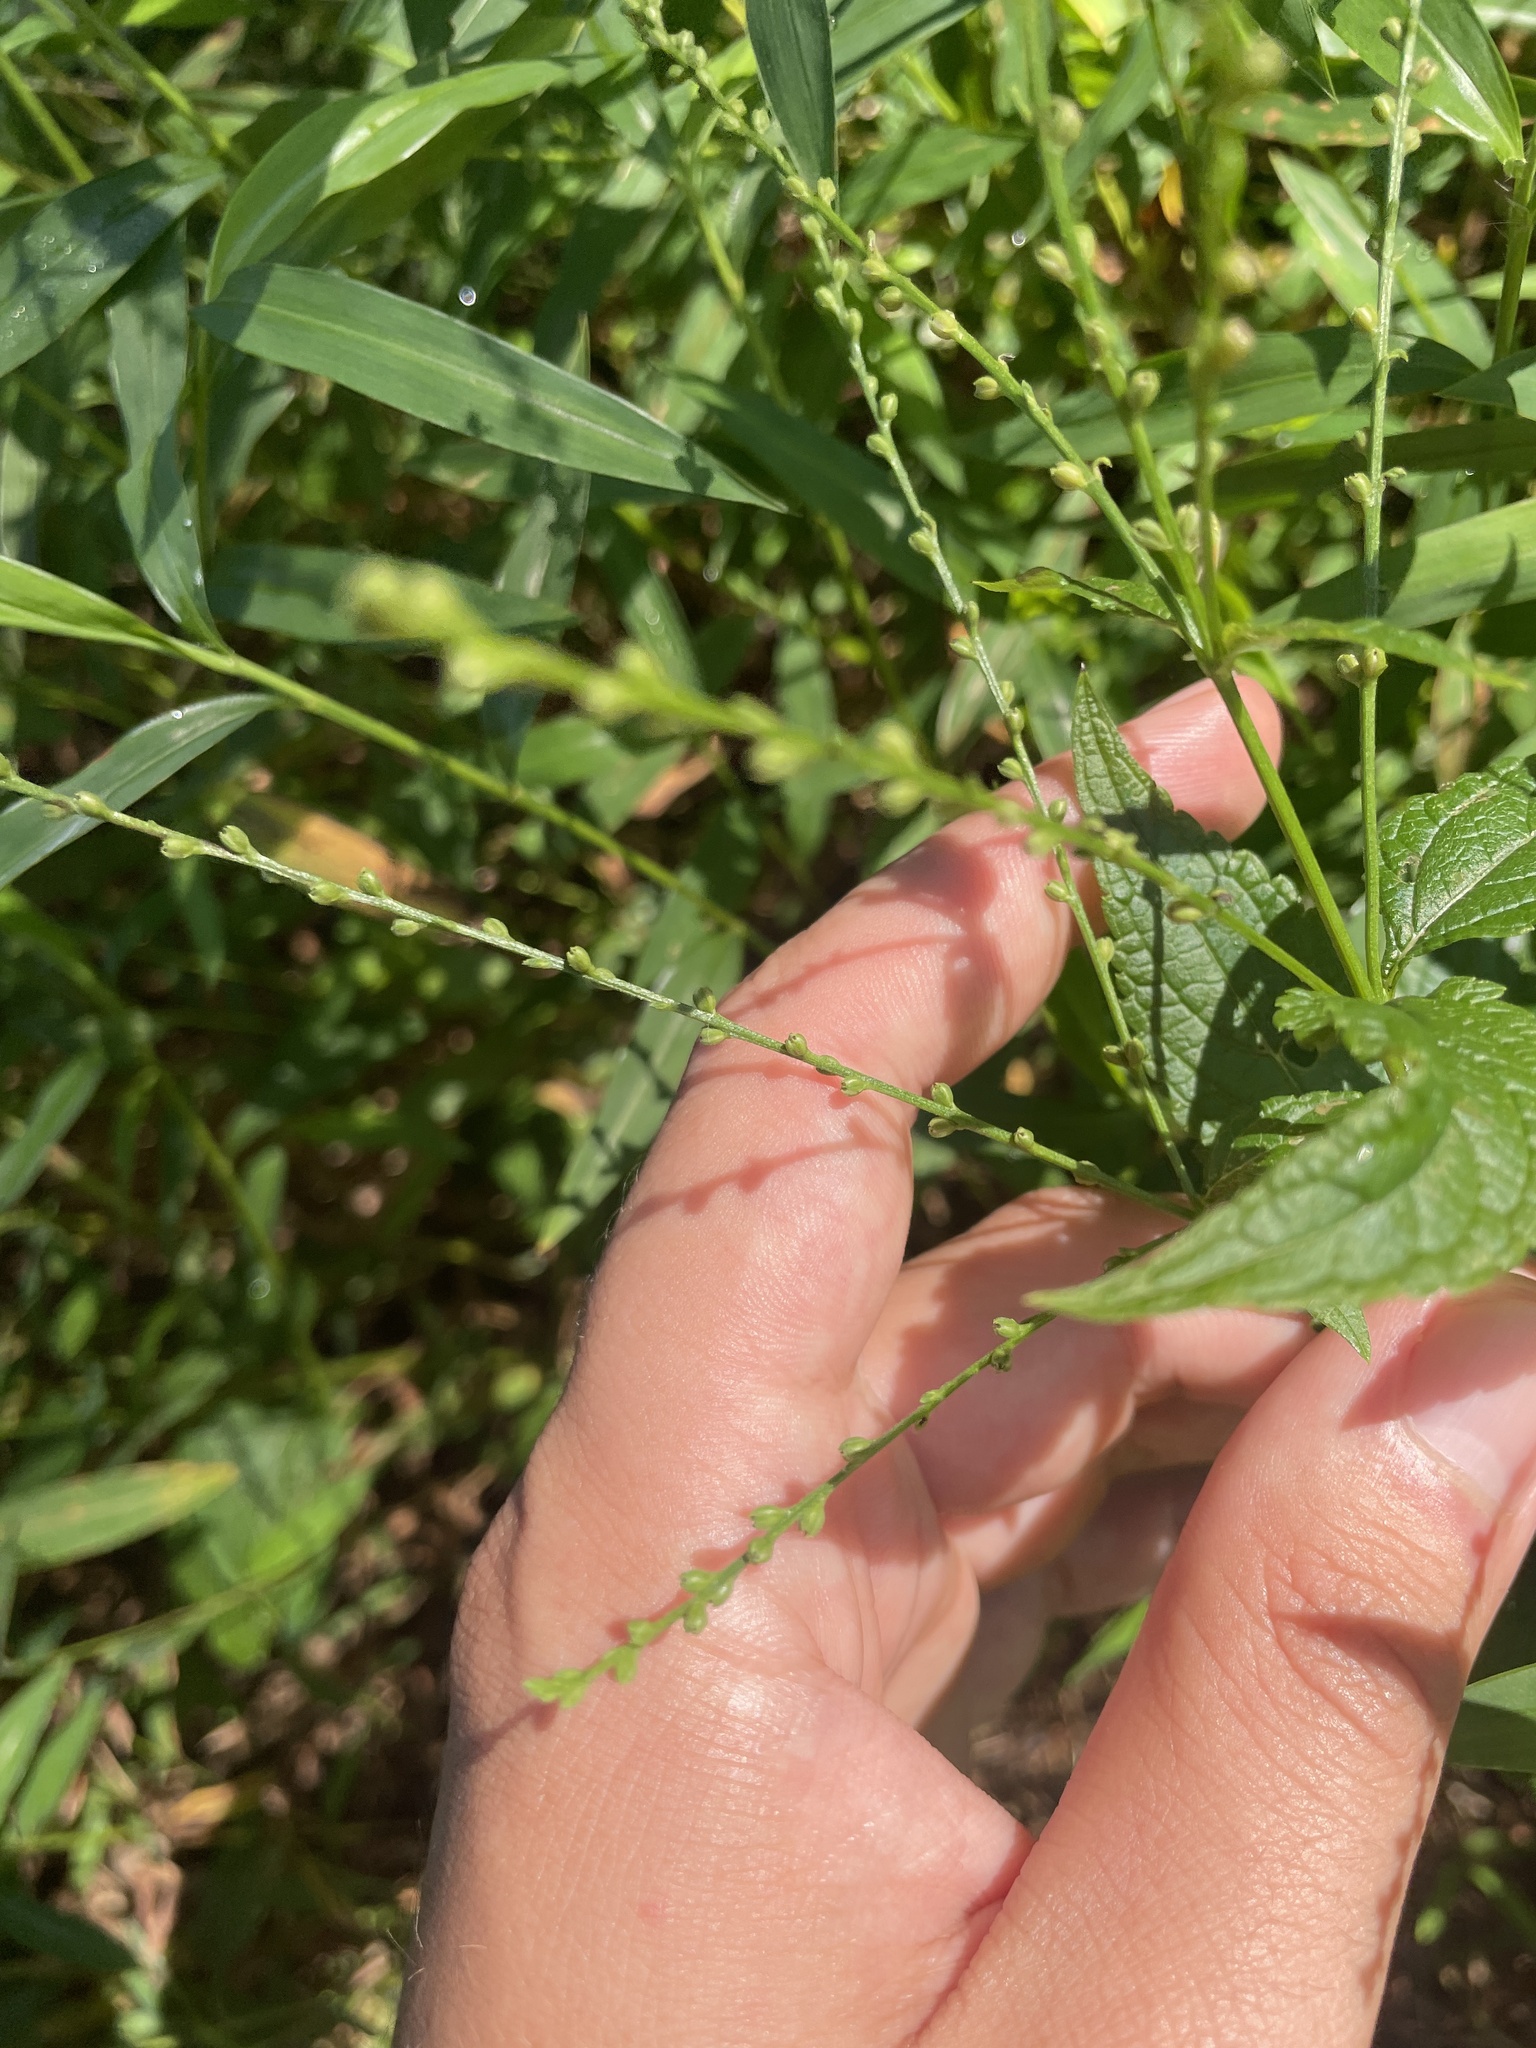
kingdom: Plantae
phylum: Tracheophyta
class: Magnoliopsida
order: Lamiales
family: Verbenaceae
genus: Verbena
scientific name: Verbena urticifolia
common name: Nettle-leaved vervain
